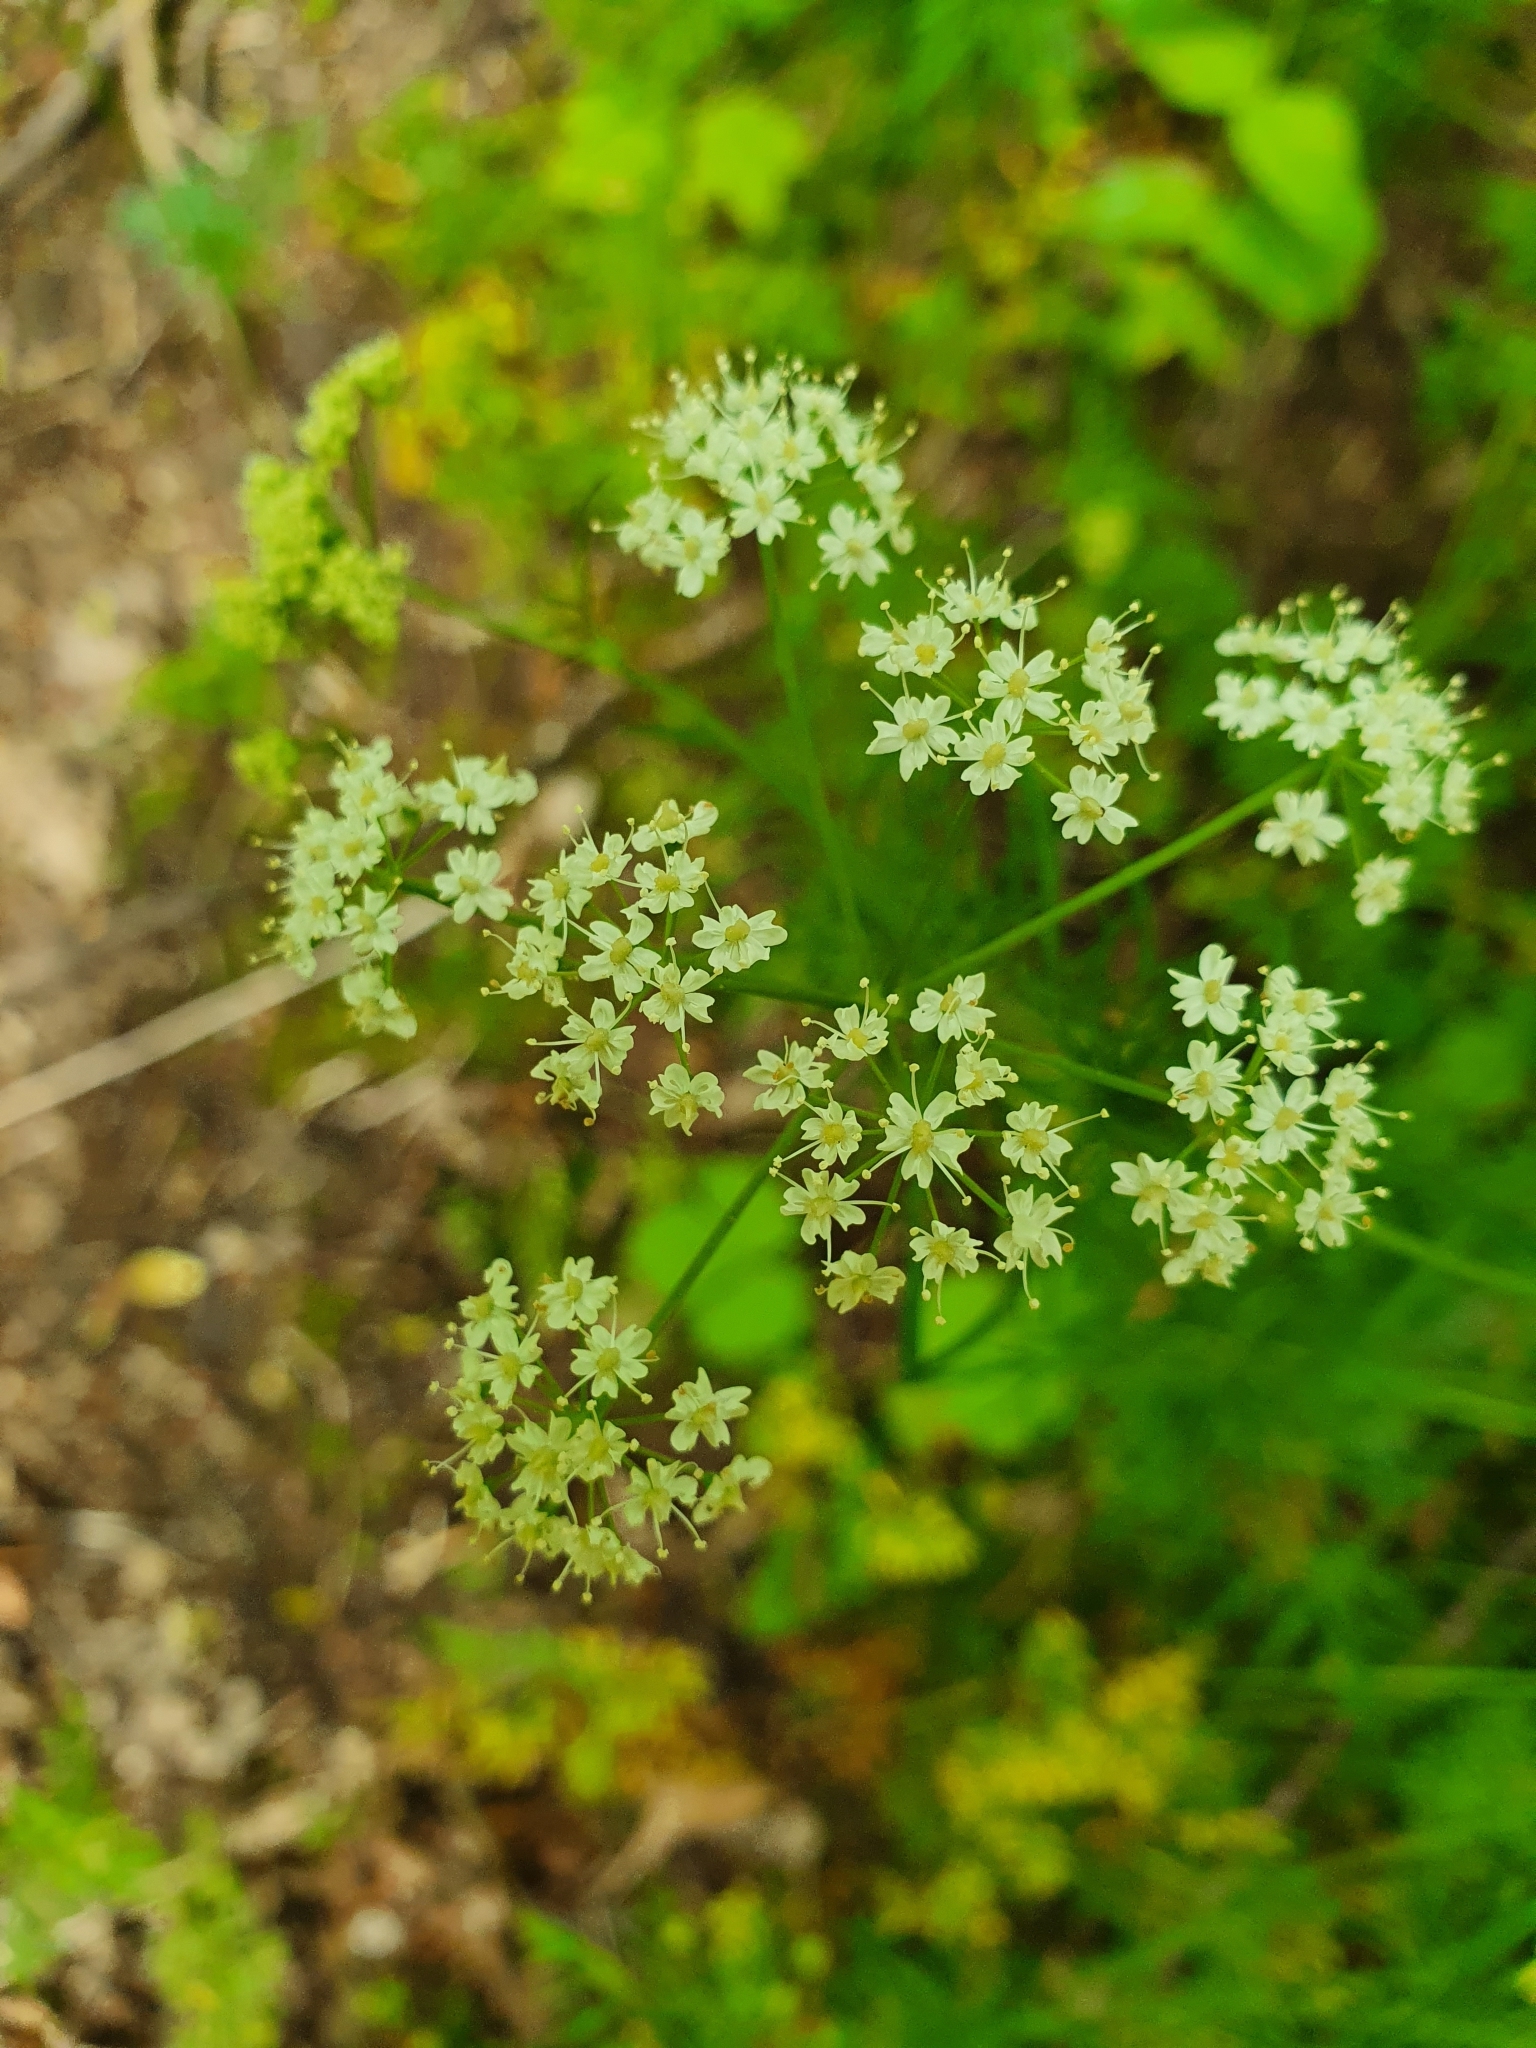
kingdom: Plantae
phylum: Tracheophyta
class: Magnoliopsida
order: Apiales
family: Apiaceae
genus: Conopodium
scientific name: Conopodium majus
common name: Pignut
